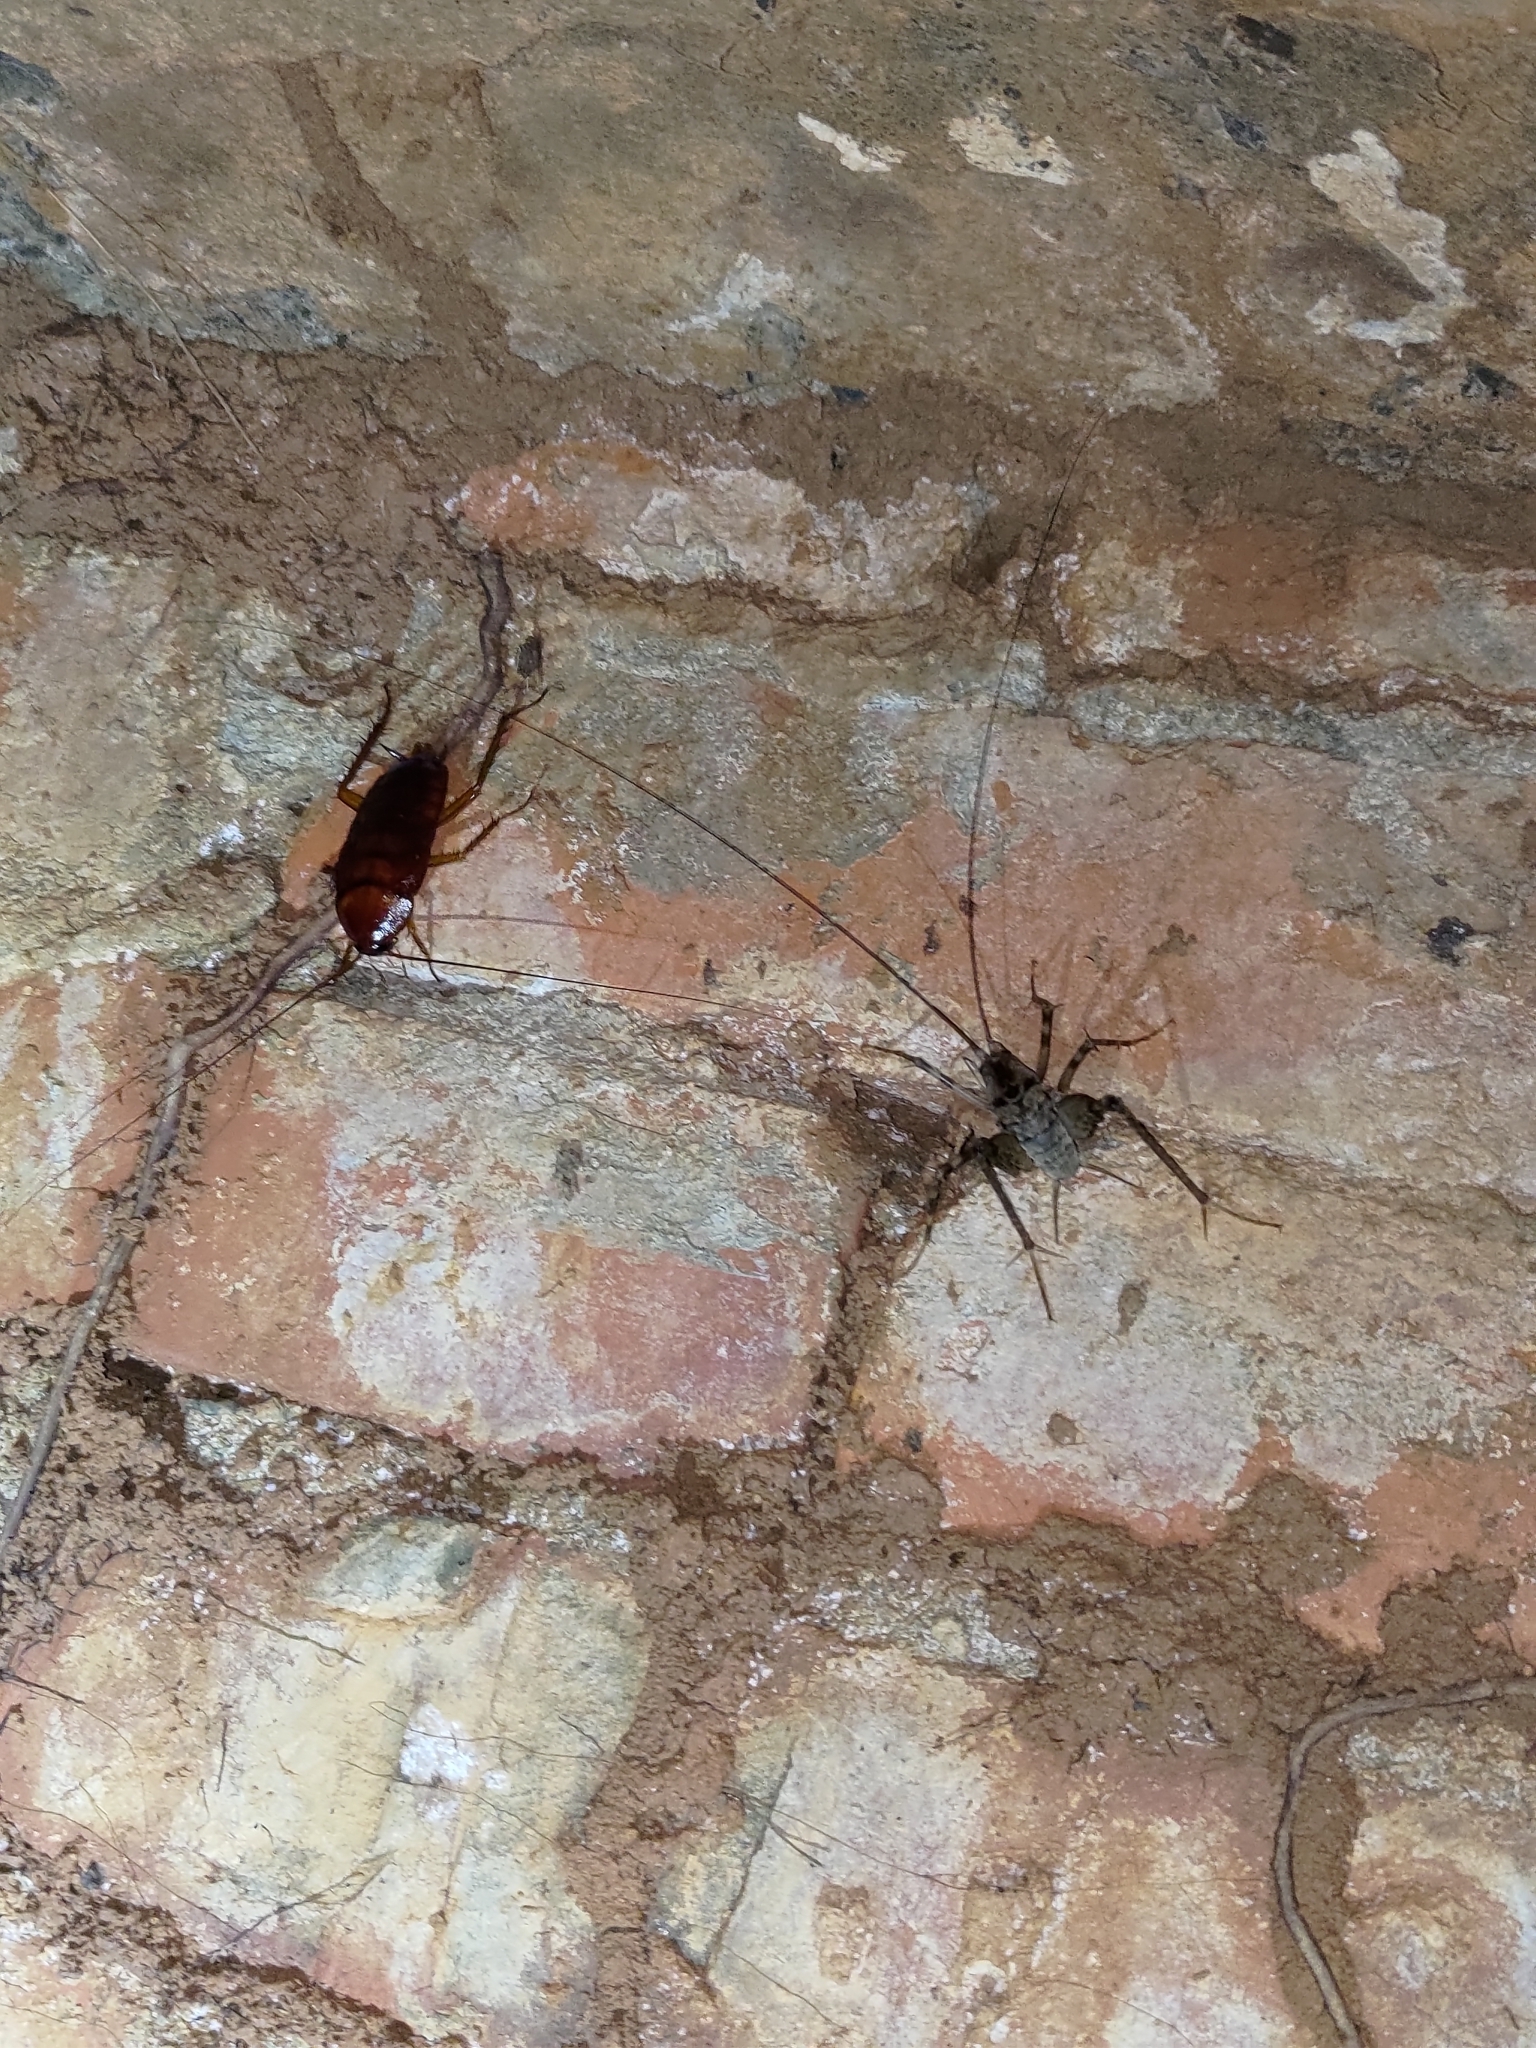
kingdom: Animalia
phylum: Arthropoda
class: Insecta
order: Blattodea
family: Blattidae
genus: Periplaneta
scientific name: Periplaneta americana
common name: American cockroach
